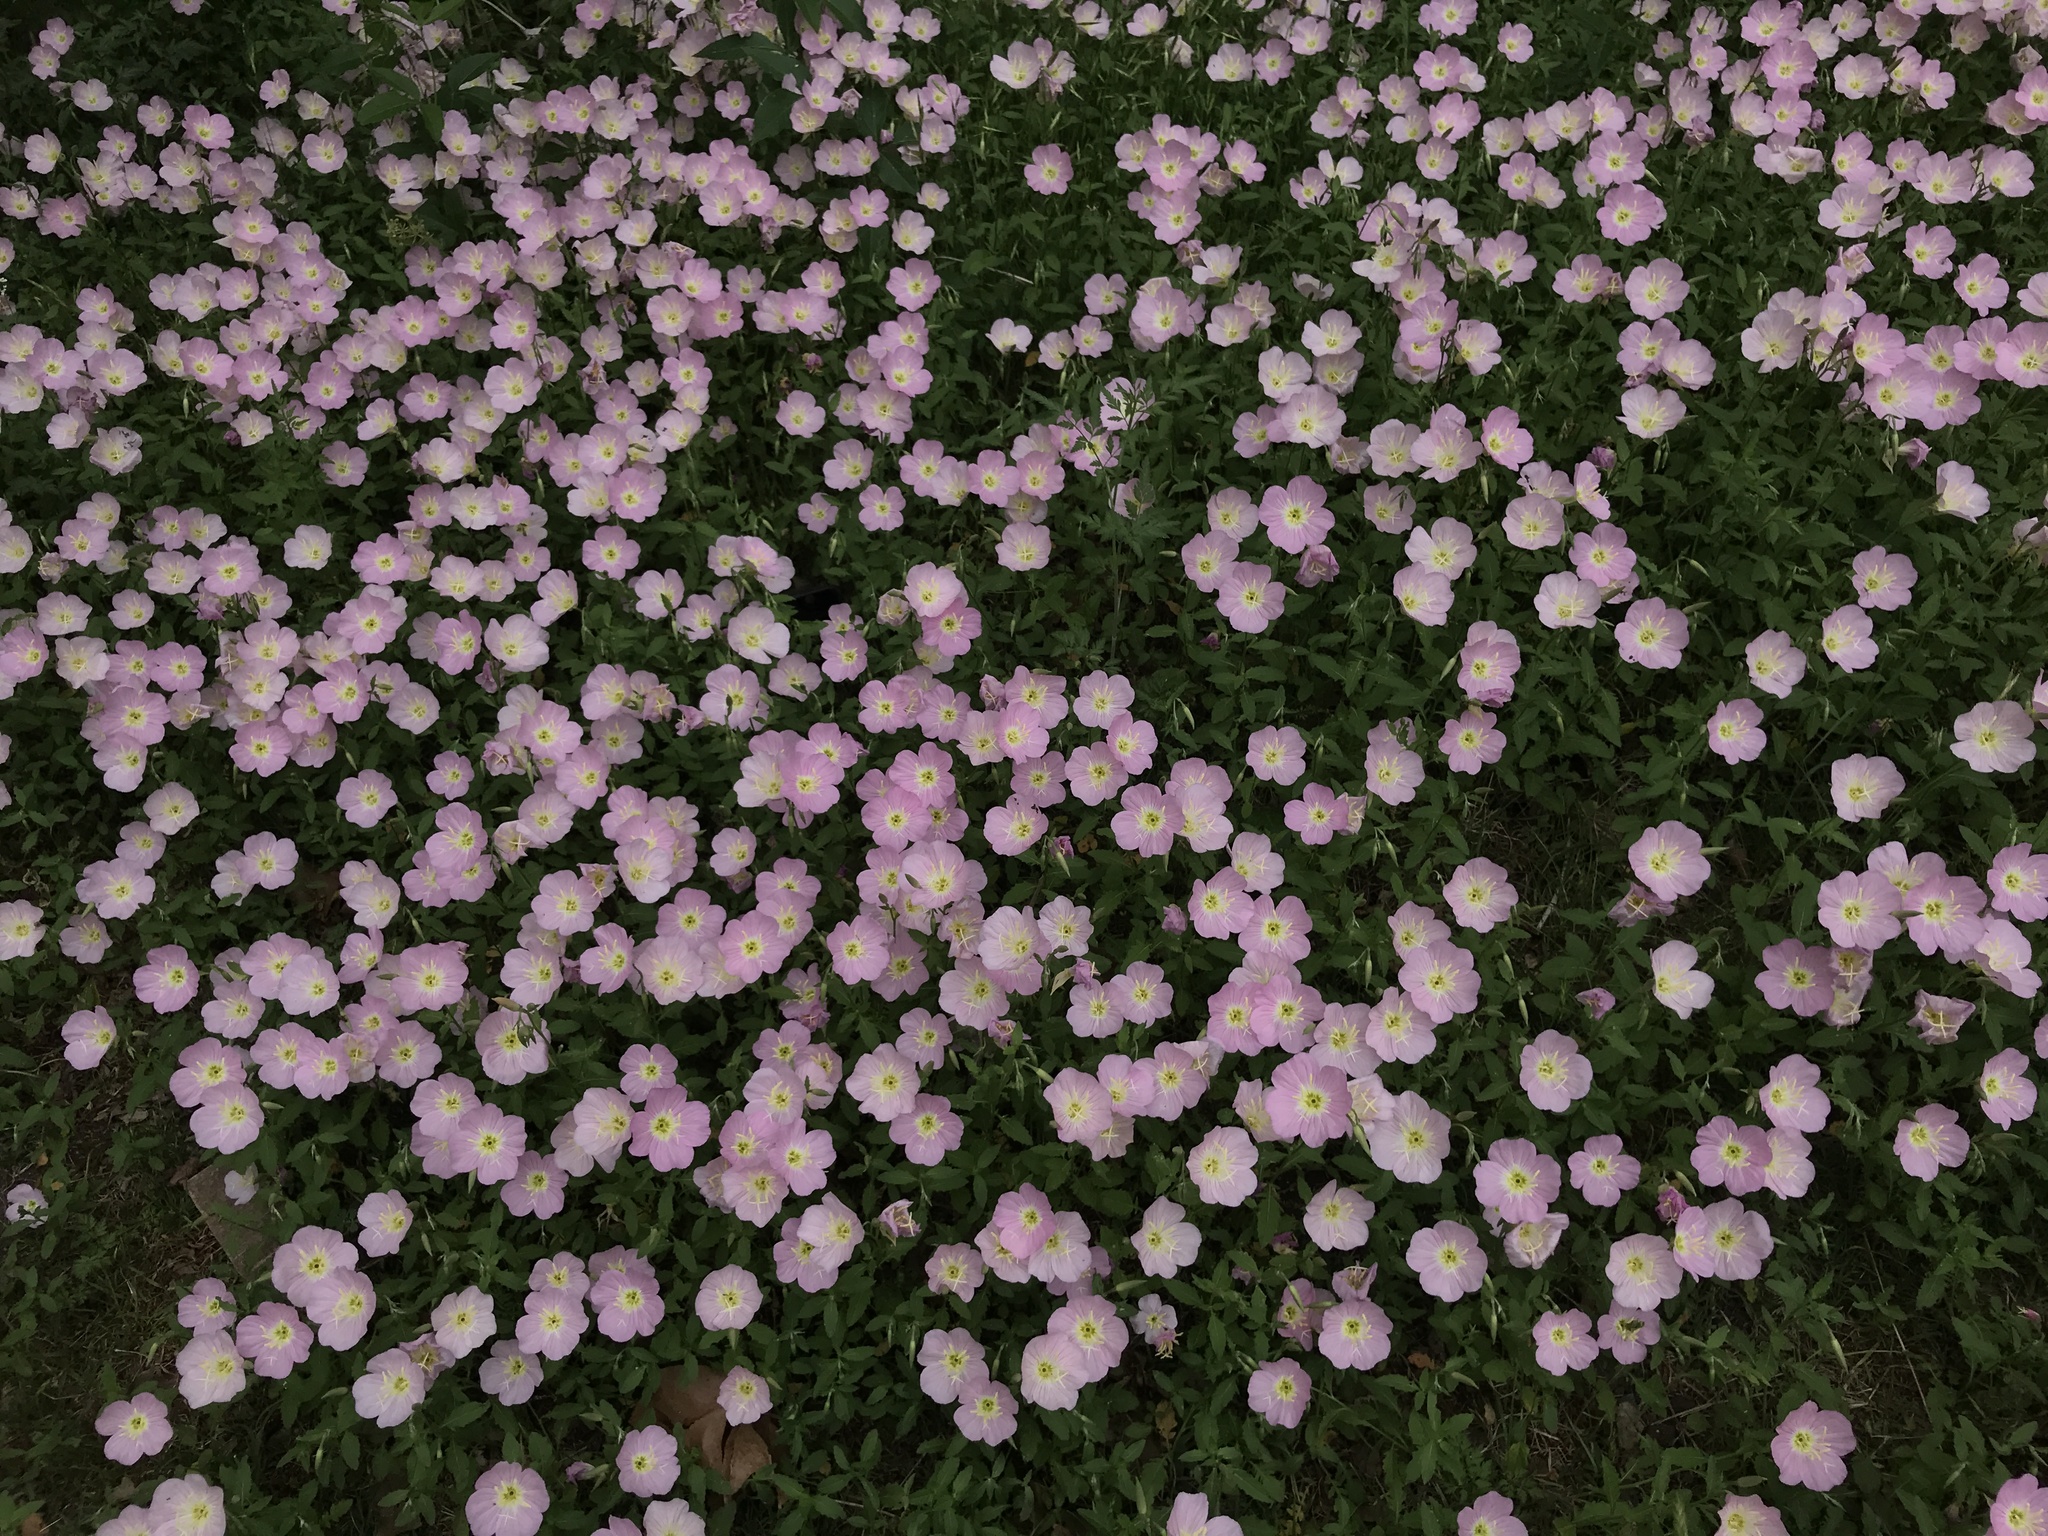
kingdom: Plantae
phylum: Tracheophyta
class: Magnoliopsida
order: Myrtales
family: Onagraceae
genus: Oenothera
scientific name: Oenothera speciosa
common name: White evening-primrose
